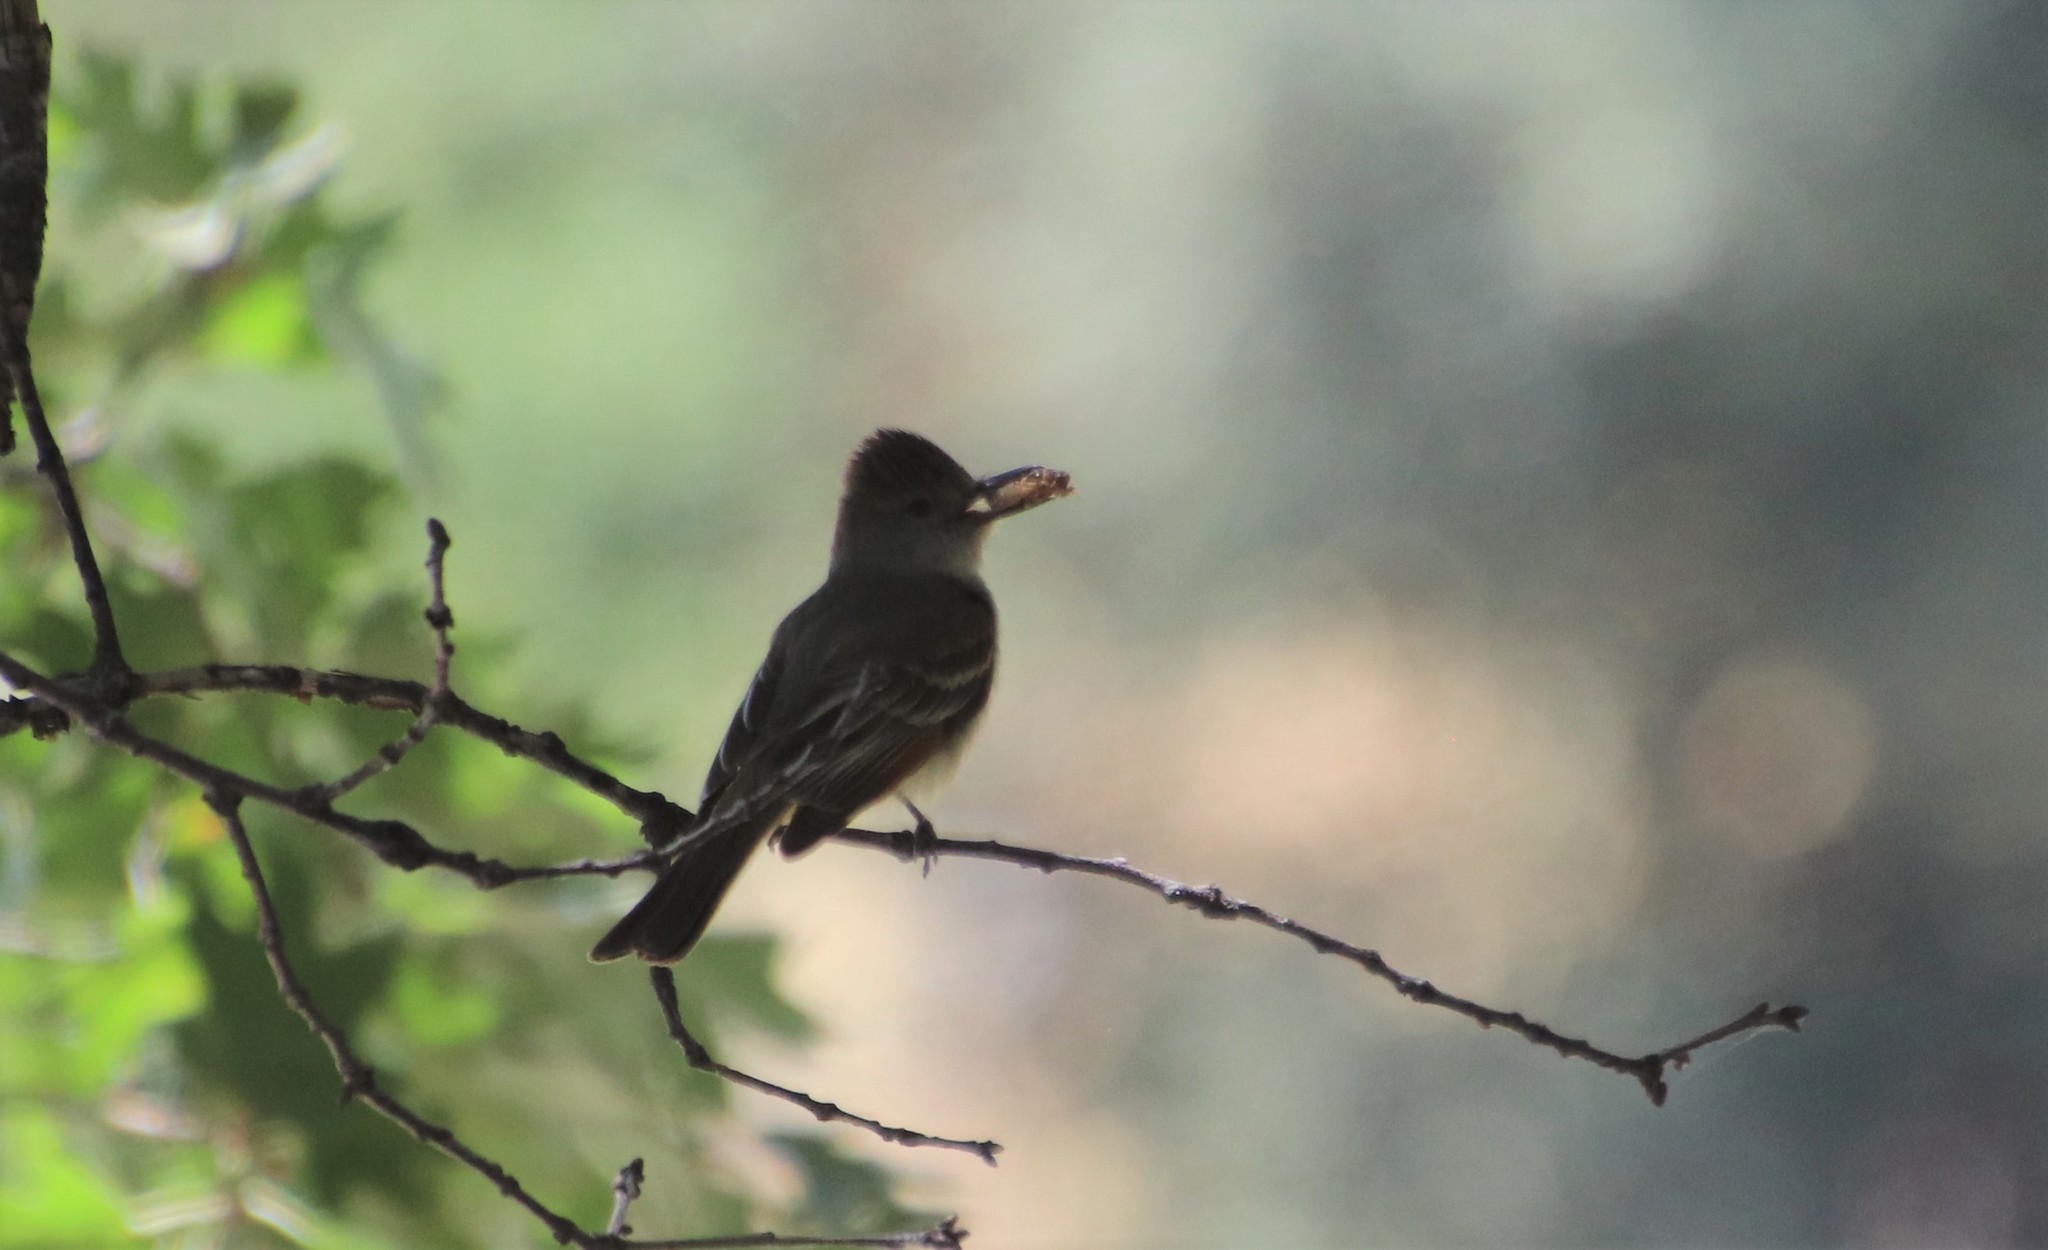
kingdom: Animalia
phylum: Chordata
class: Aves
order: Passeriformes
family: Tyrannidae
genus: Myiarchus
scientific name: Myiarchus cinerascens
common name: Ash-throated flycatcher
